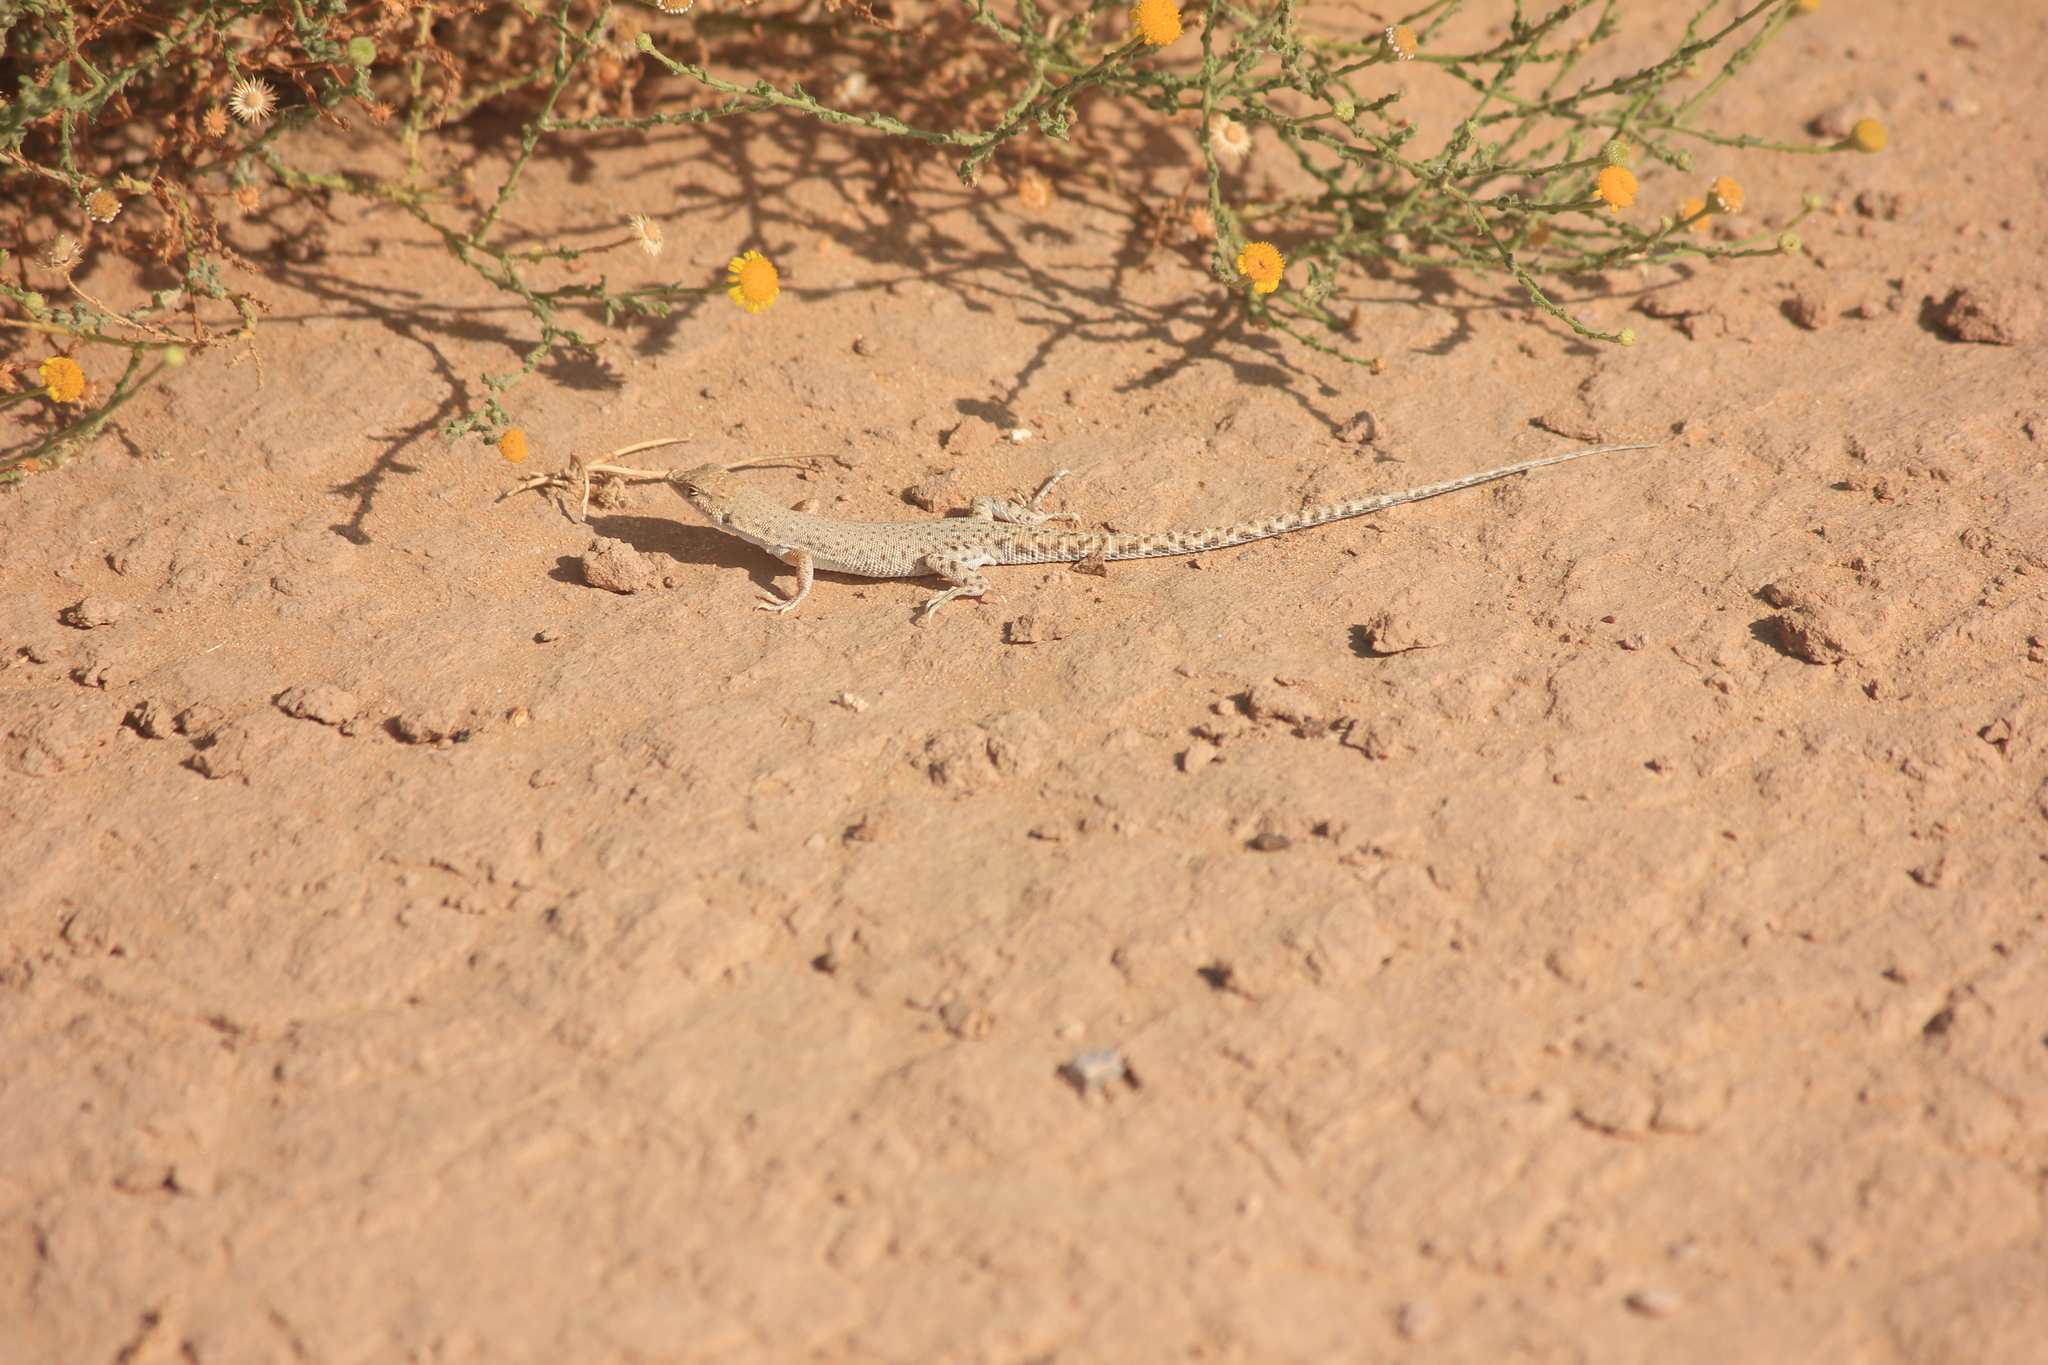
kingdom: Animalia
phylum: Chordata
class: Squamata
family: Lacertidae
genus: Mesalina
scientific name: Mesalina brevirostris
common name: Blanford's short-nosed desert lizard
